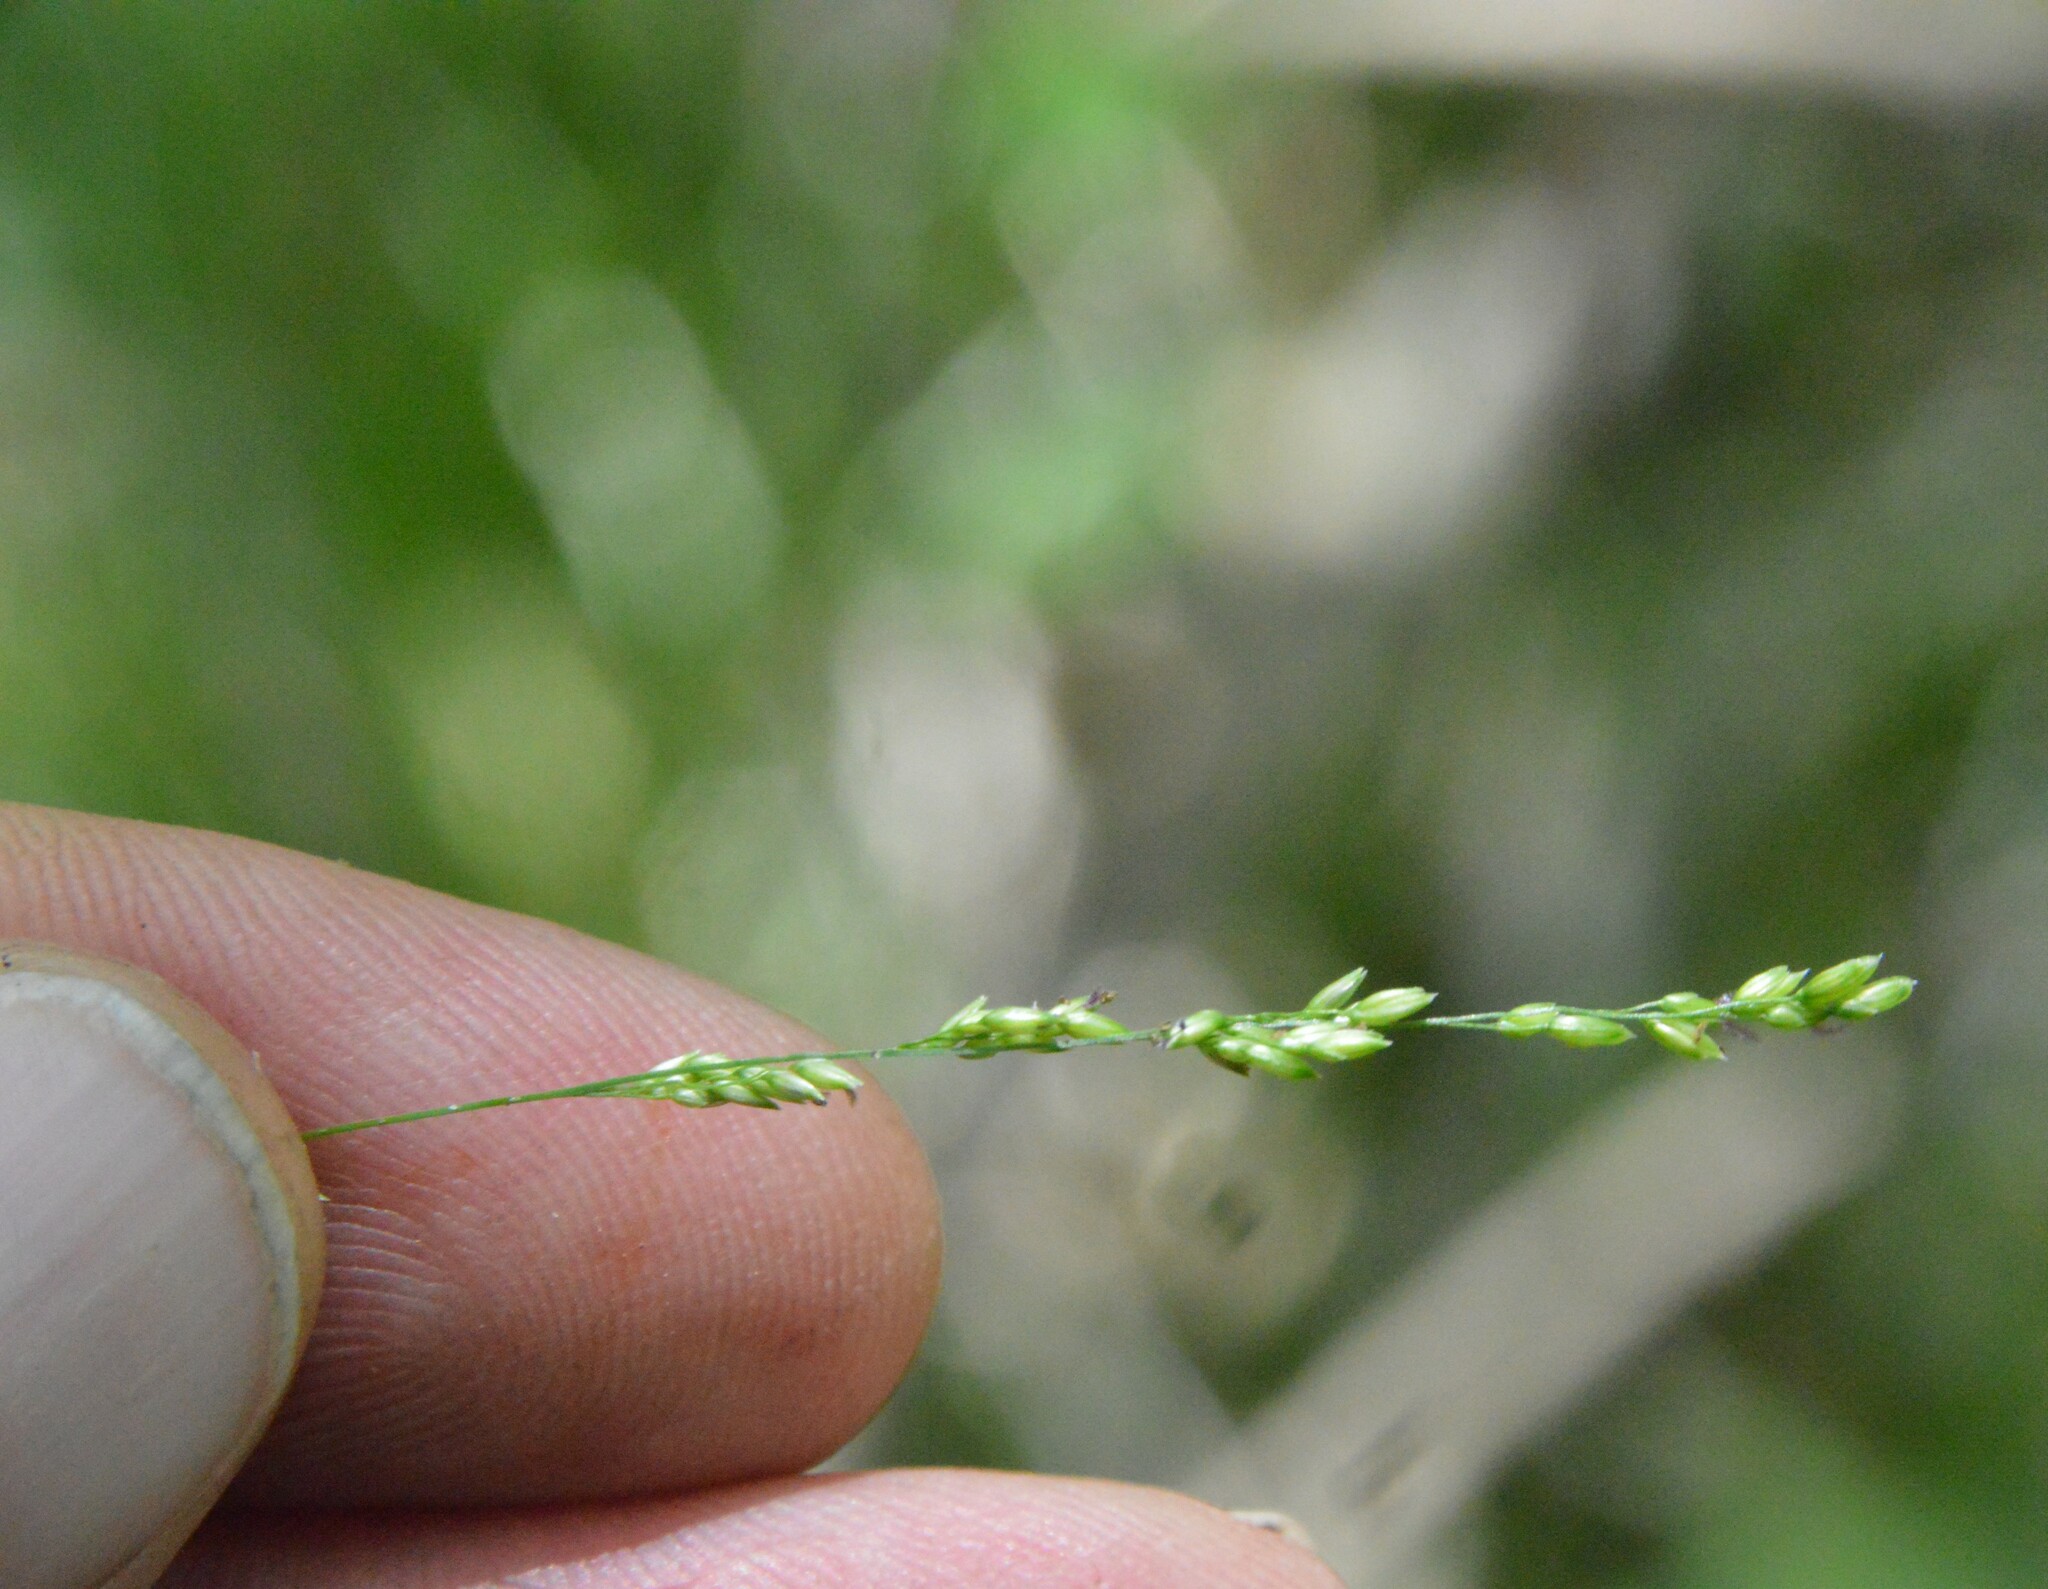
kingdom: Plantae
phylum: Tracheophyta
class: Liliopsida
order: Poales
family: Poaceae
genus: Steinchisma
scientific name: Steinchisma hians
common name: Gaping panic grass
